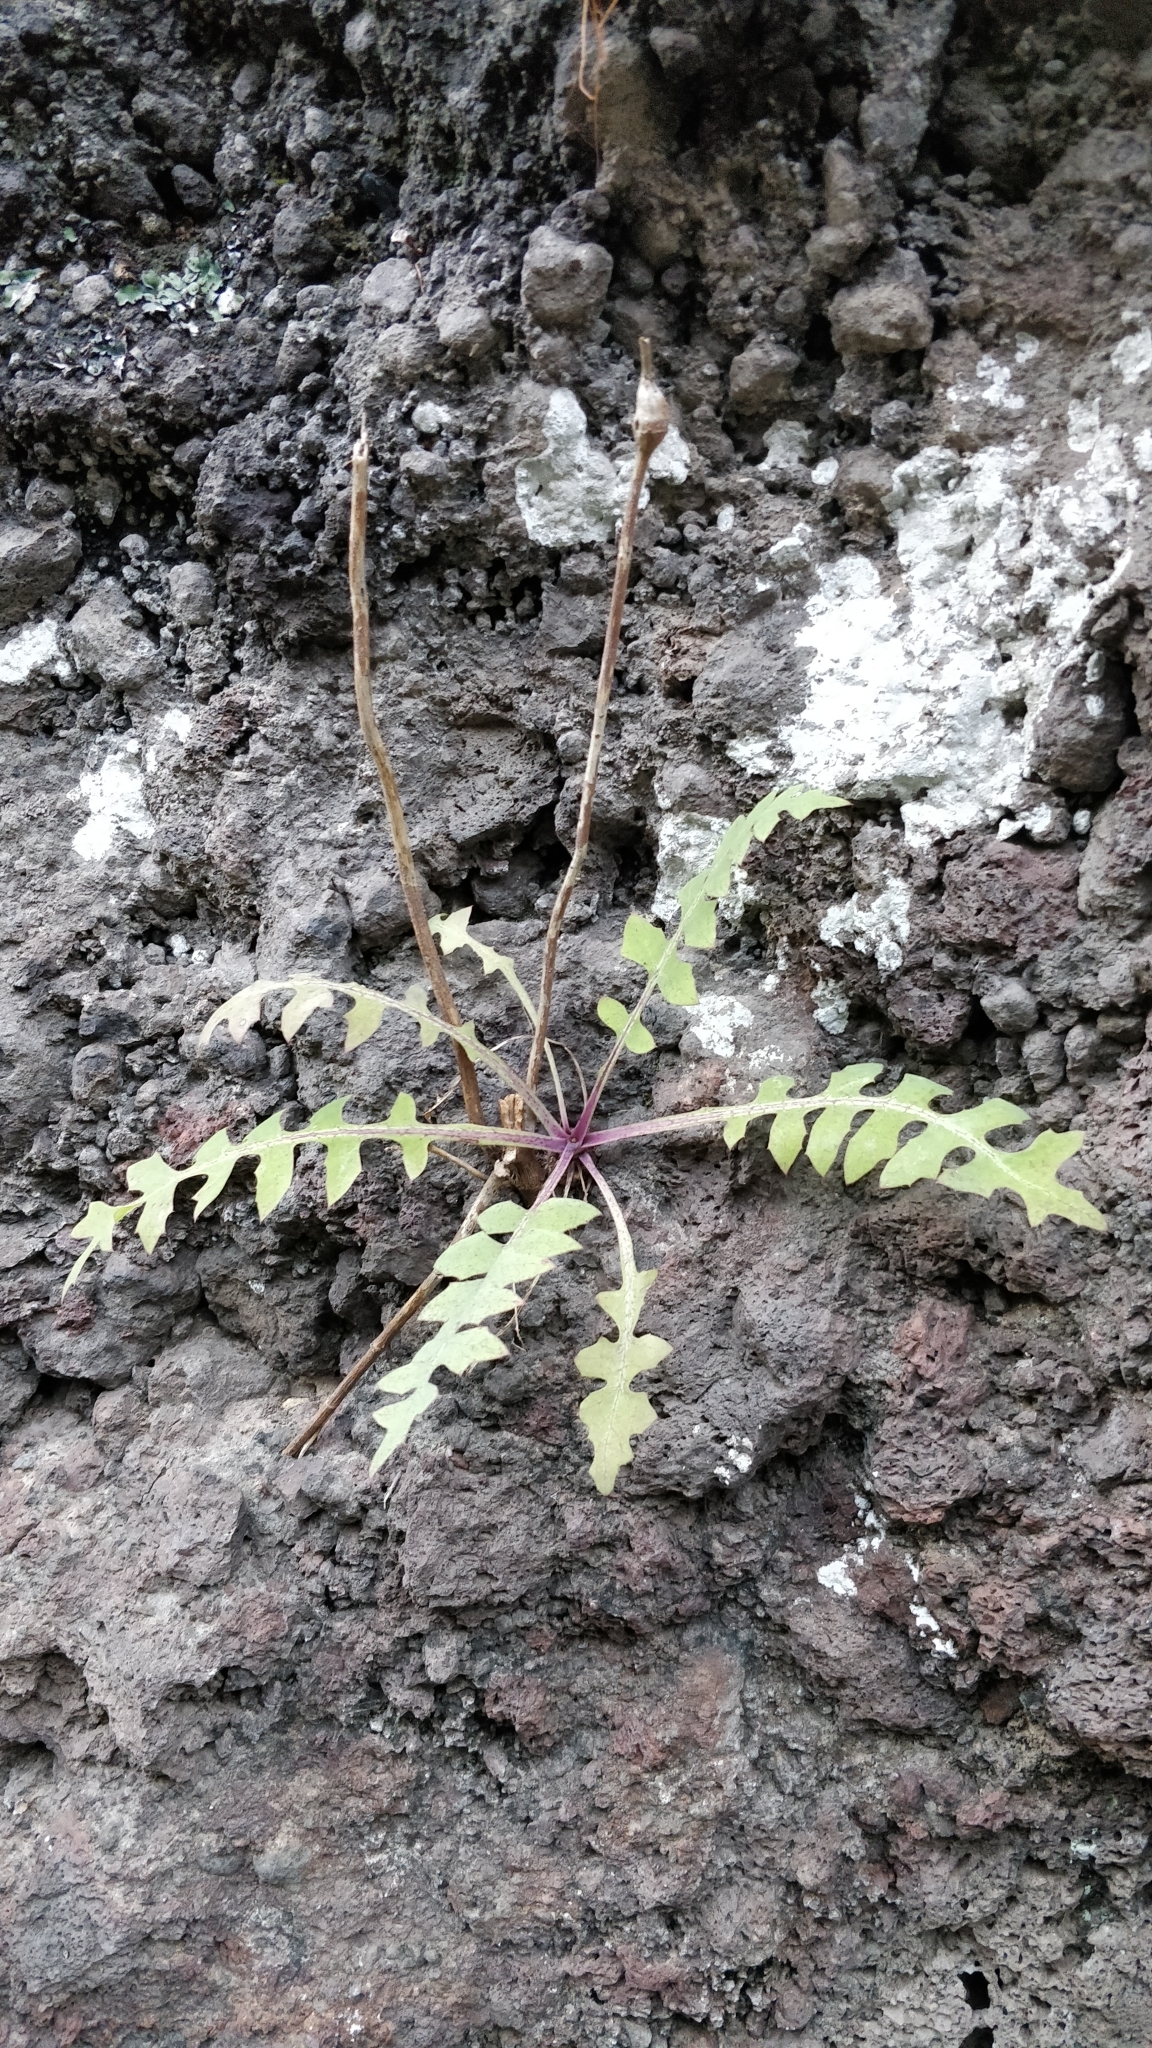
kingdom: Plantae
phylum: Tracheophyta
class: Magnoliopsida
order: Asterales
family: Asteraceae
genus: Sonchus
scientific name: Sonchus ustulatus
